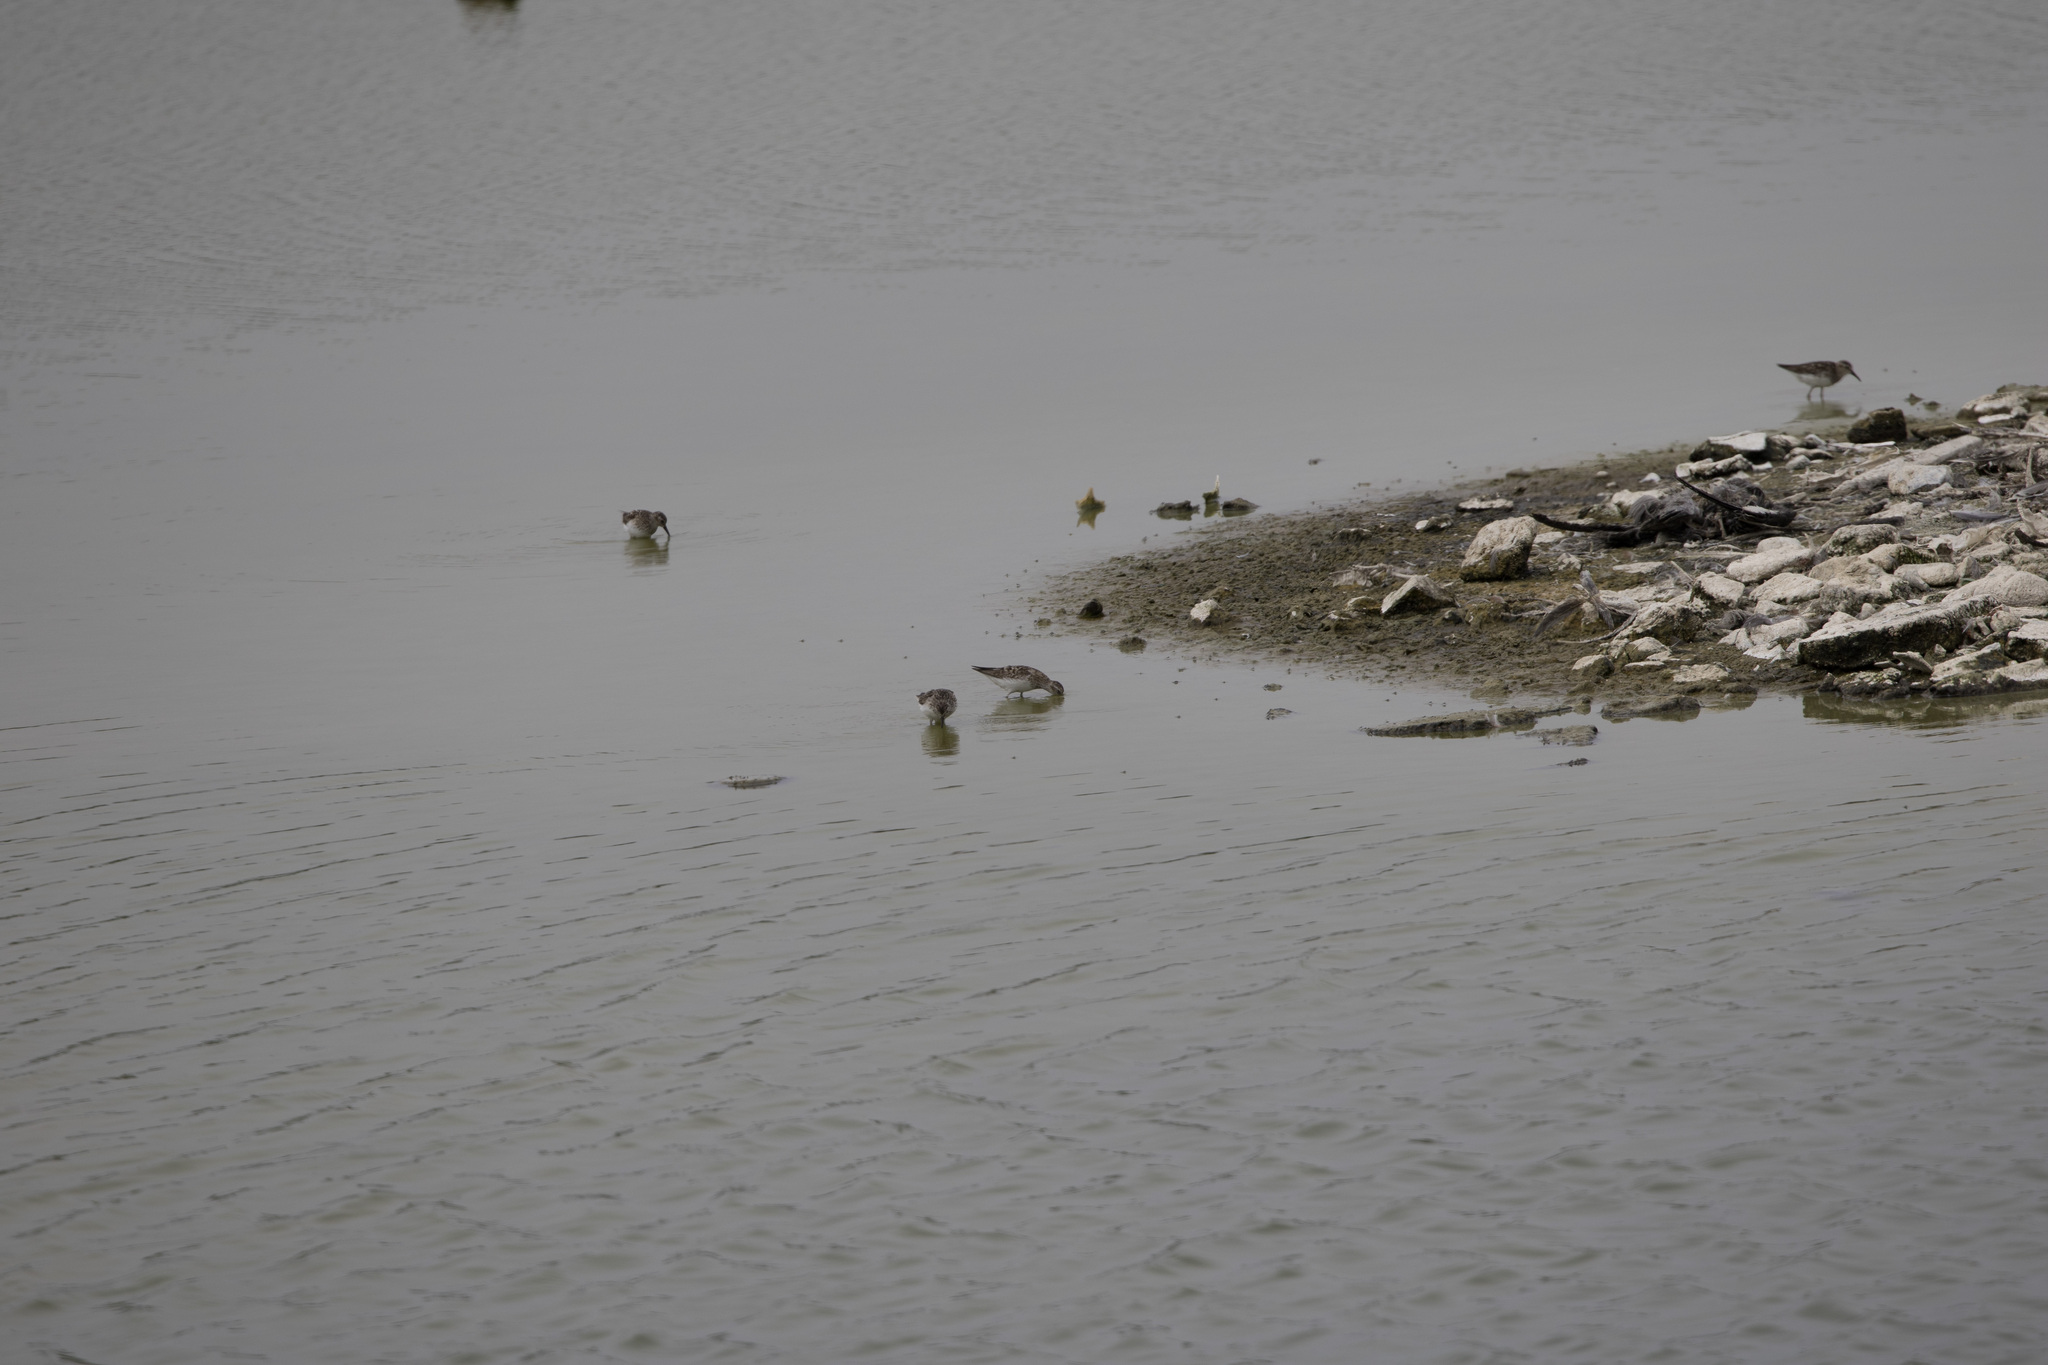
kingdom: Animalia
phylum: Chordata
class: Aves
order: Charadriiformes
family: Scolopacidae
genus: Calidris
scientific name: Calidris minutilla
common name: Least sandpiper
